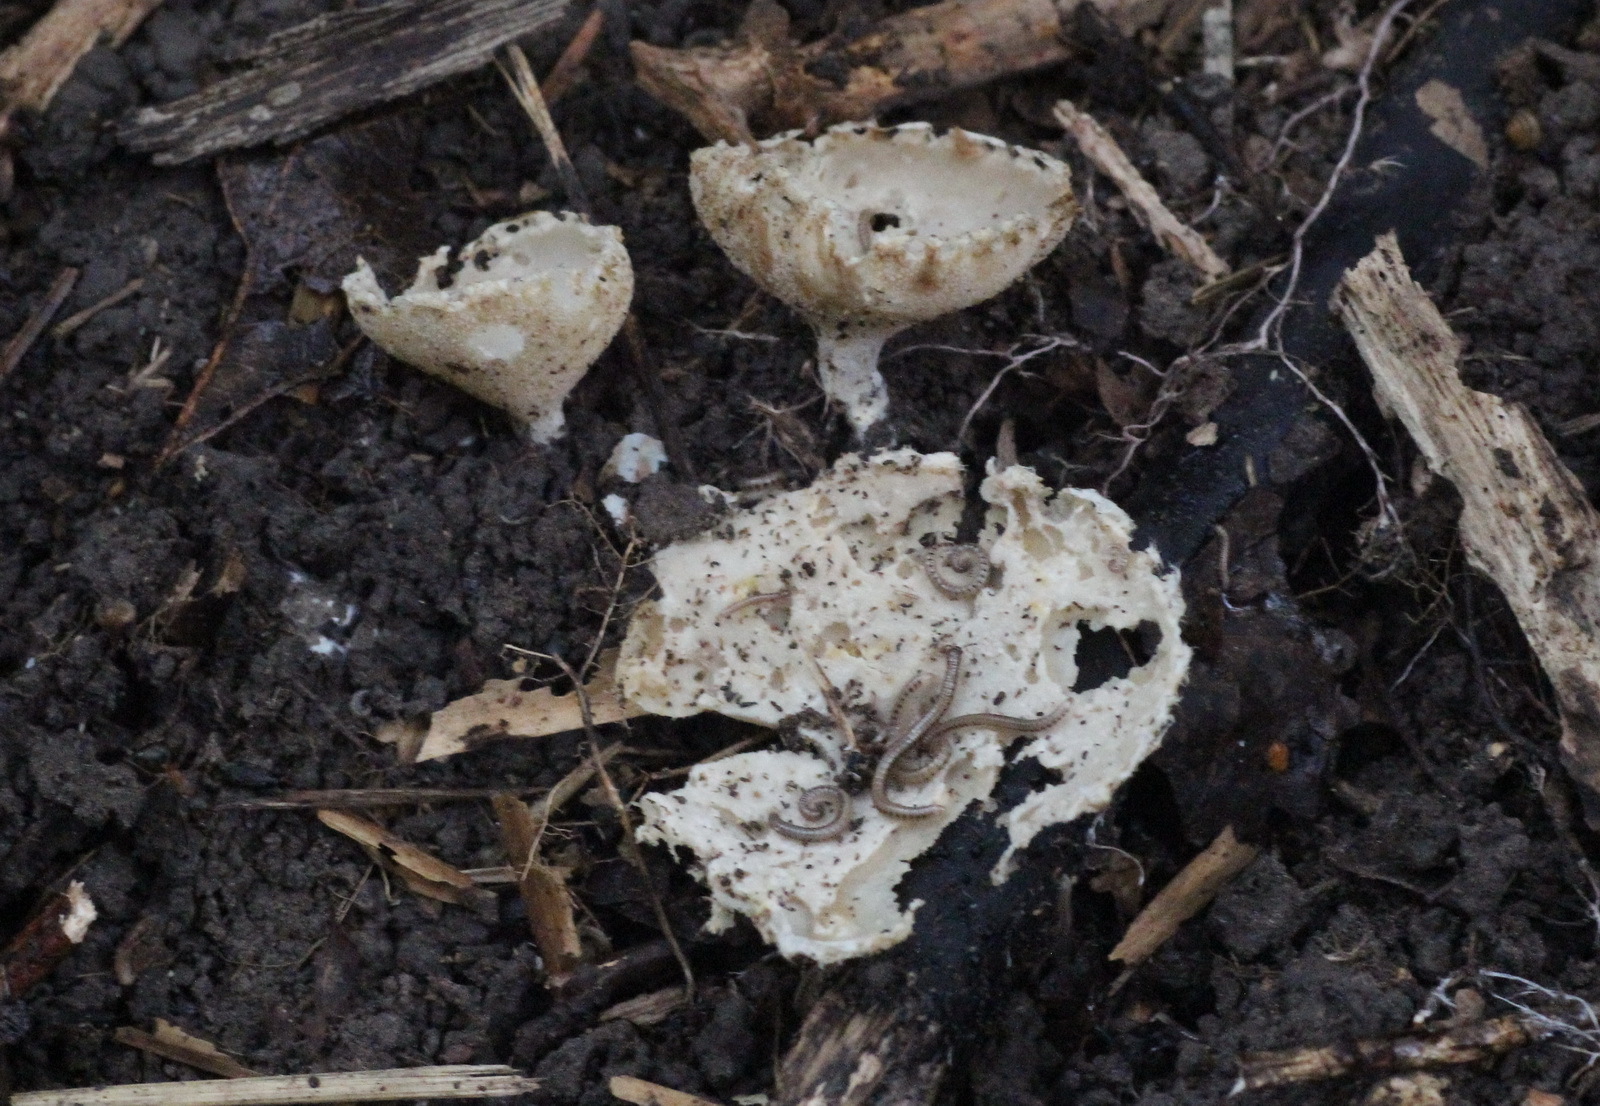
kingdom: Fungi
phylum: Ascomycota
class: Pezizomycetes
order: Pezizales
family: Tarzettaceae
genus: Tarzetta
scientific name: Tarzetta catinus
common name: Greater toothed cup
